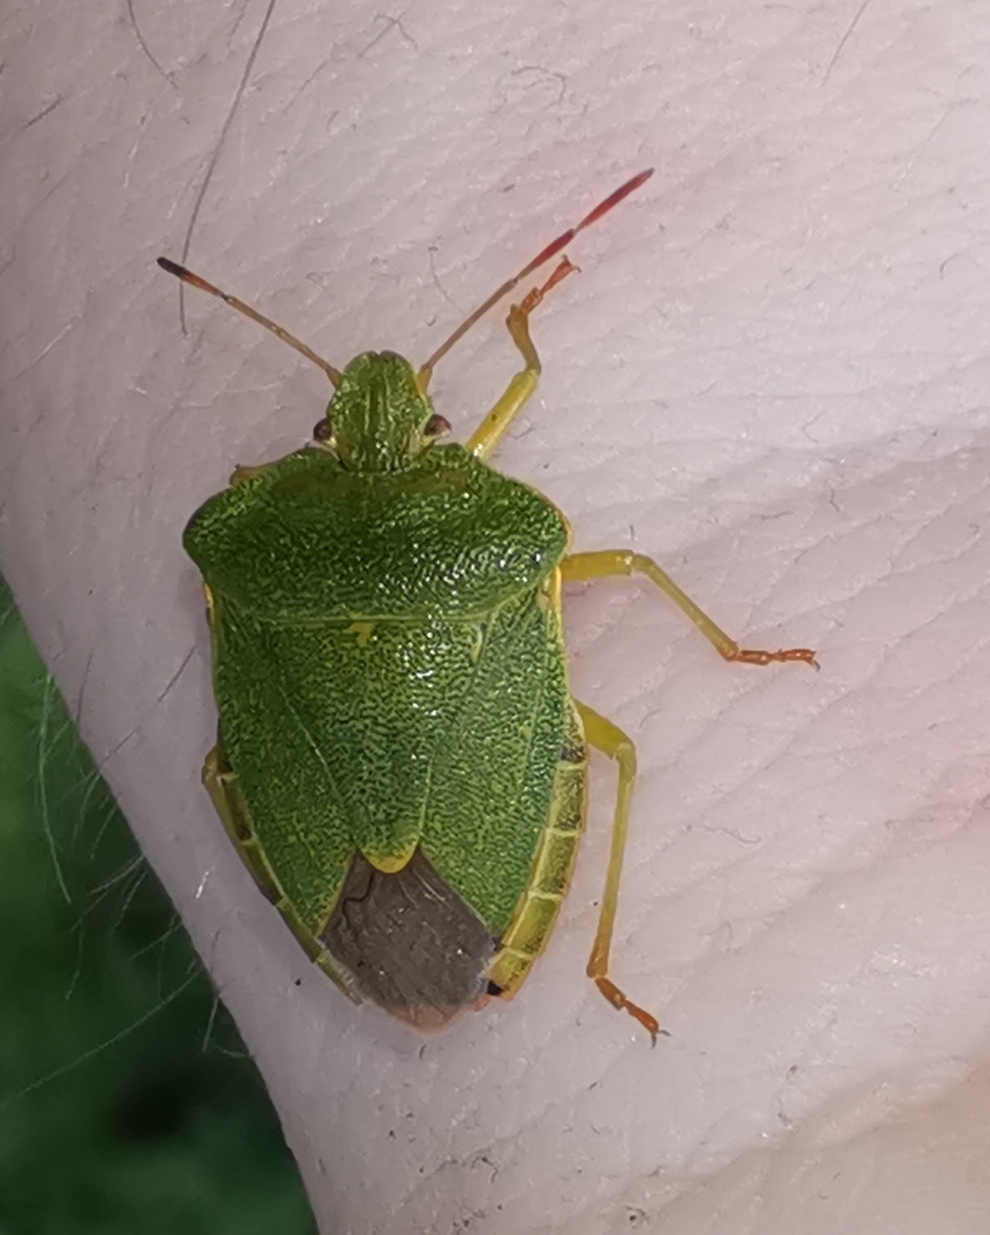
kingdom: Animalia
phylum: Arthropoda
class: Insecta
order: Hemiptera
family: Pentatomidae
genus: Palomena
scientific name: Palomena prasina
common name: Green shieldbug
